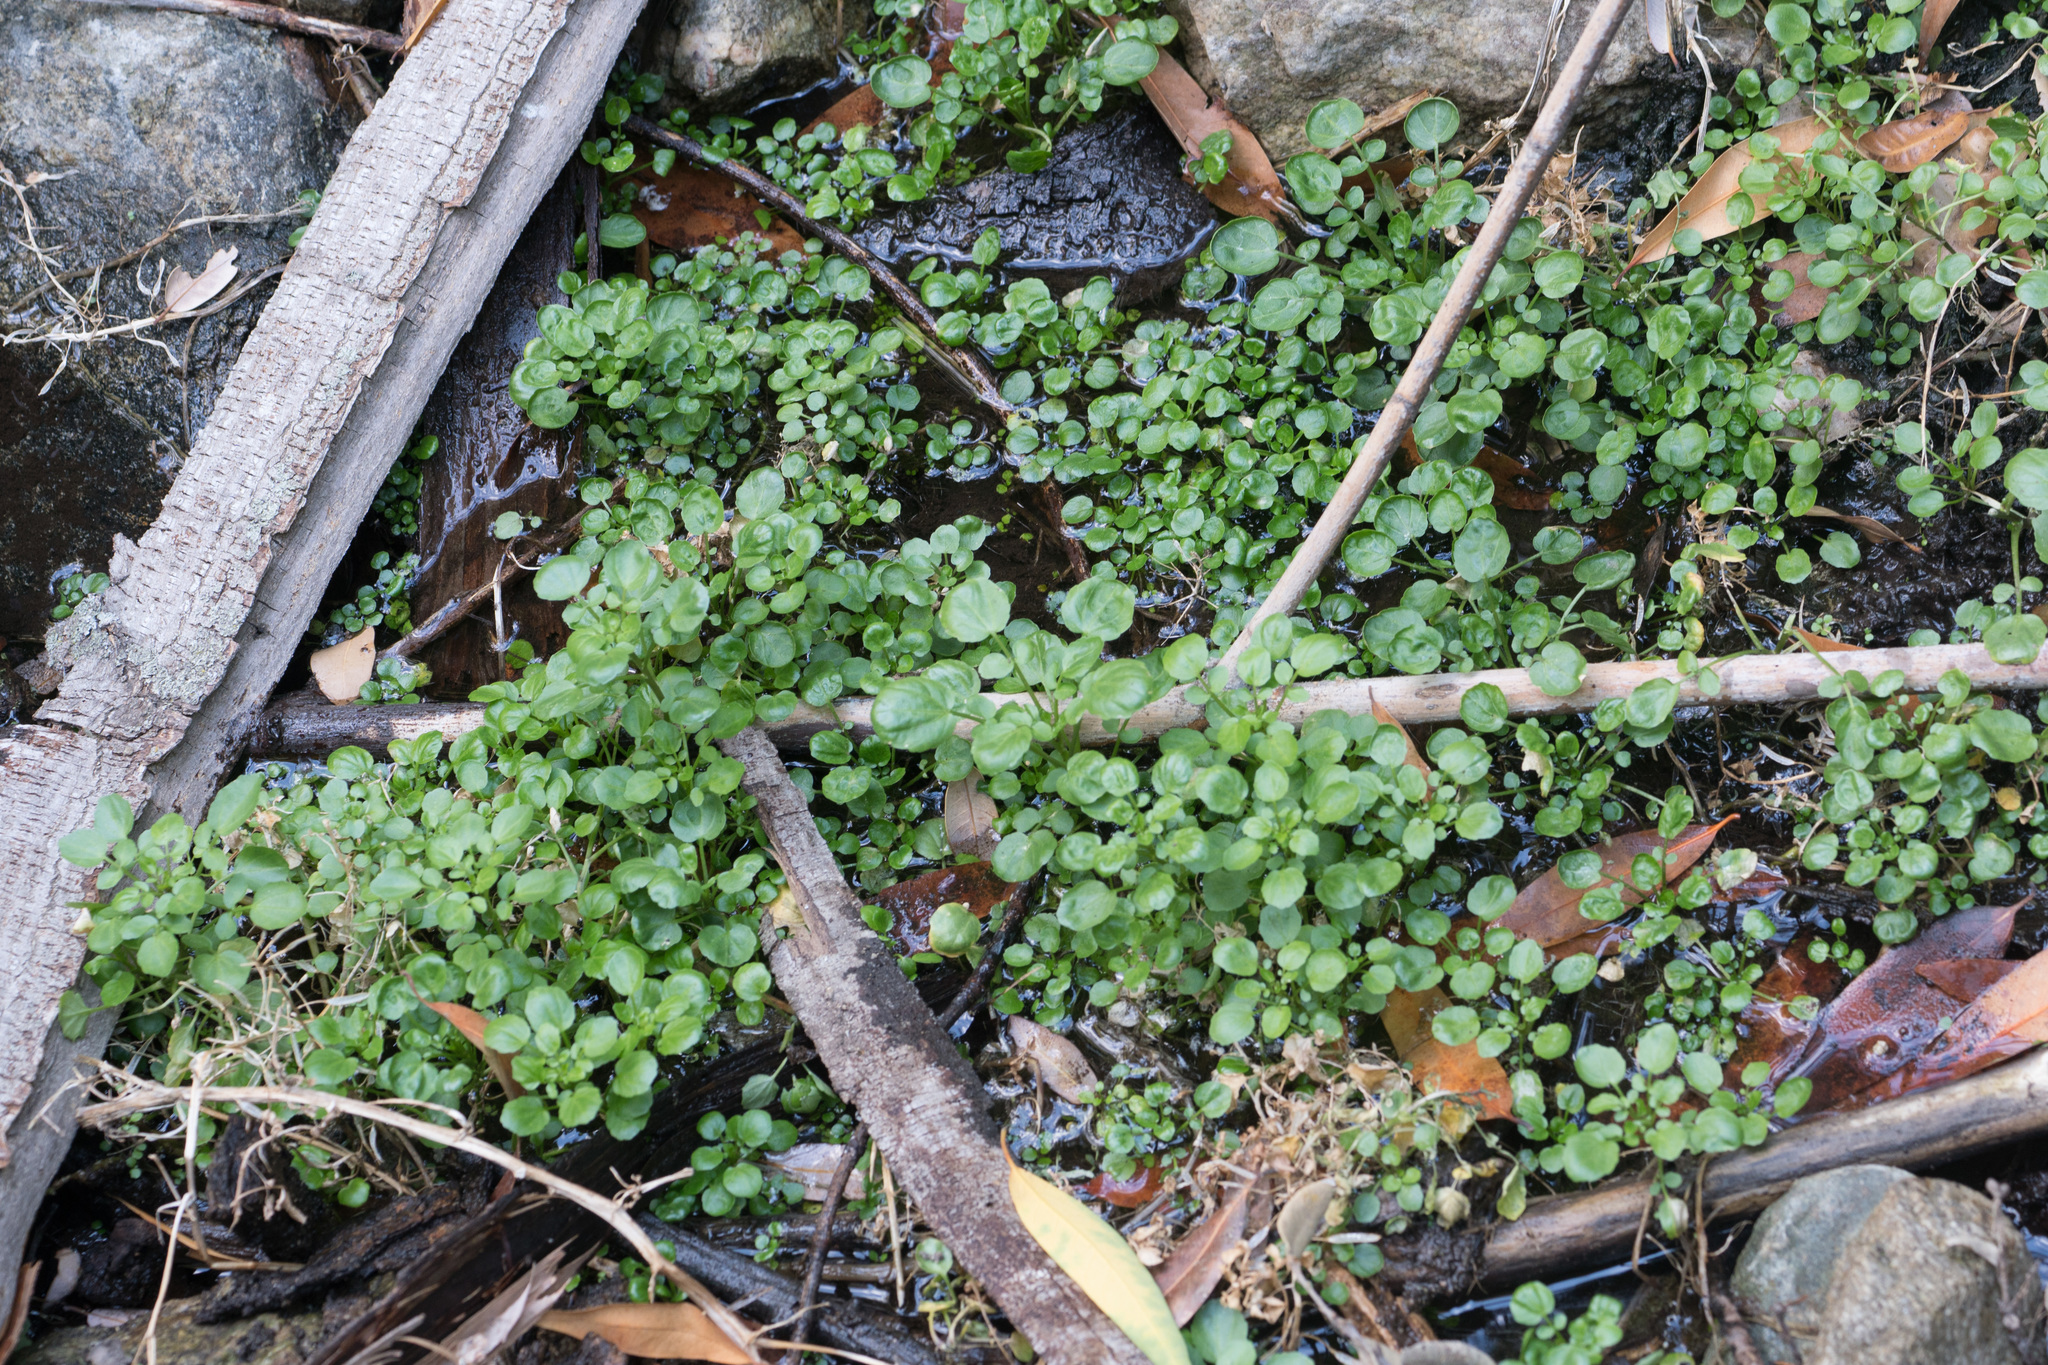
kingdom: Plantae
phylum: Tracheophyta
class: Magnoliopsida
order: Brassicales
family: Brassicaceae
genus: Nasturtium
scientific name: Nasturtium officinale
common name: Watercress
